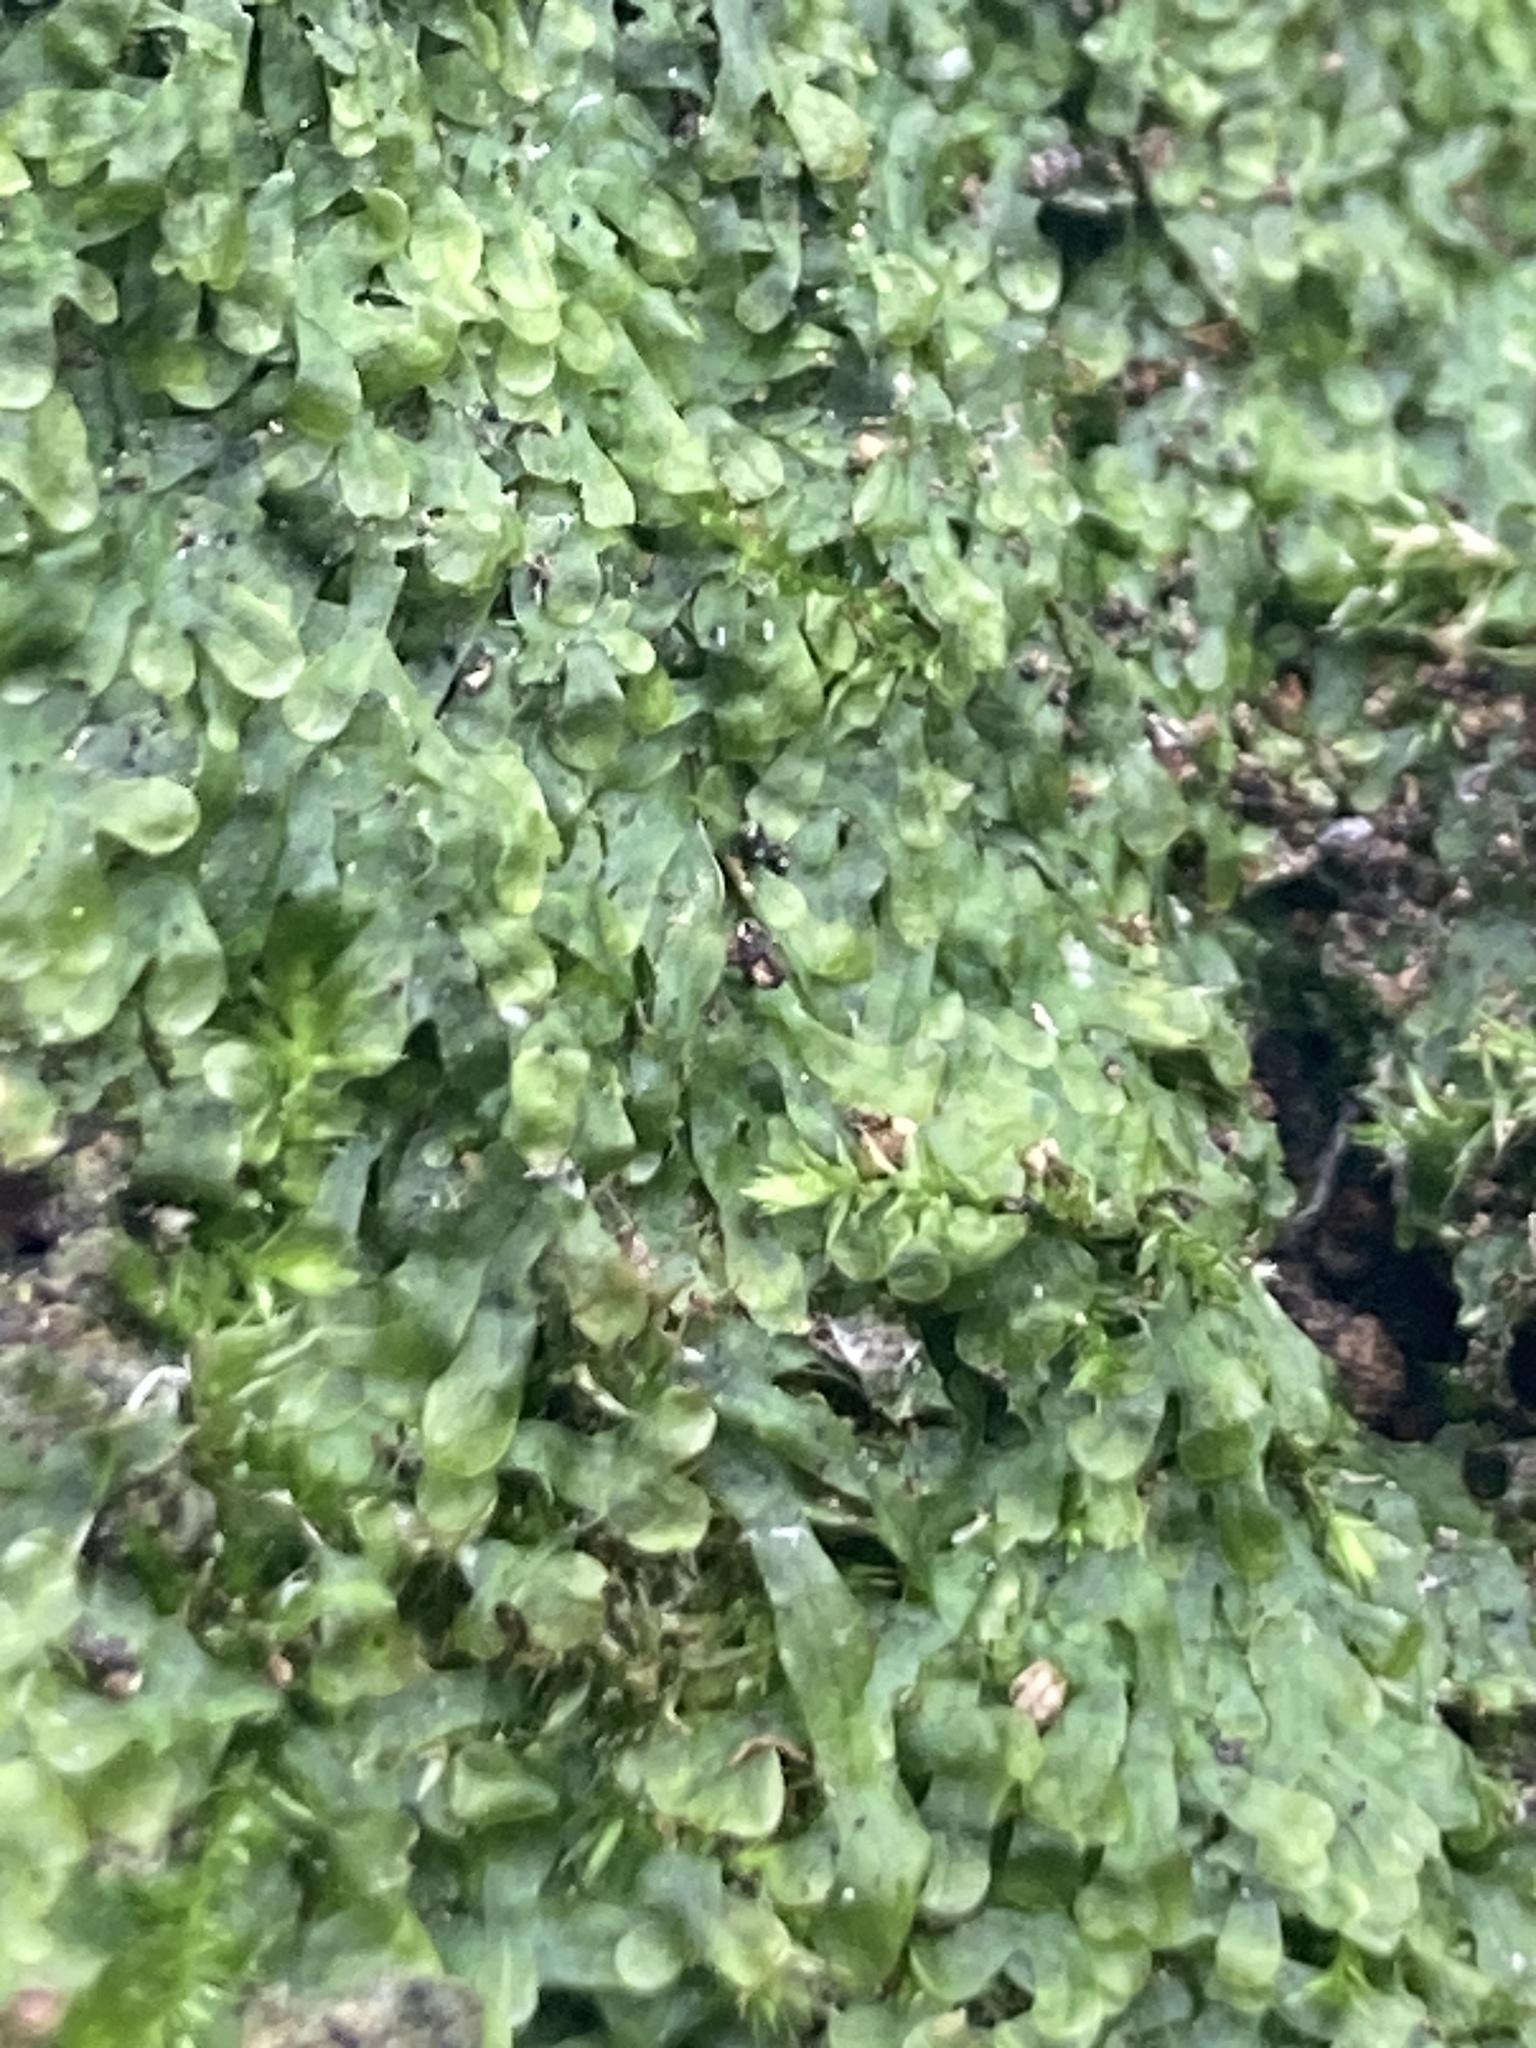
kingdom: Plantae
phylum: Marchantiophyta
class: Jungermanniopsida
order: Metzgeriales
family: Metzgeriaceae
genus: Metzgeria
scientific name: Metzgeria furcata
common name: Forked veilwort
